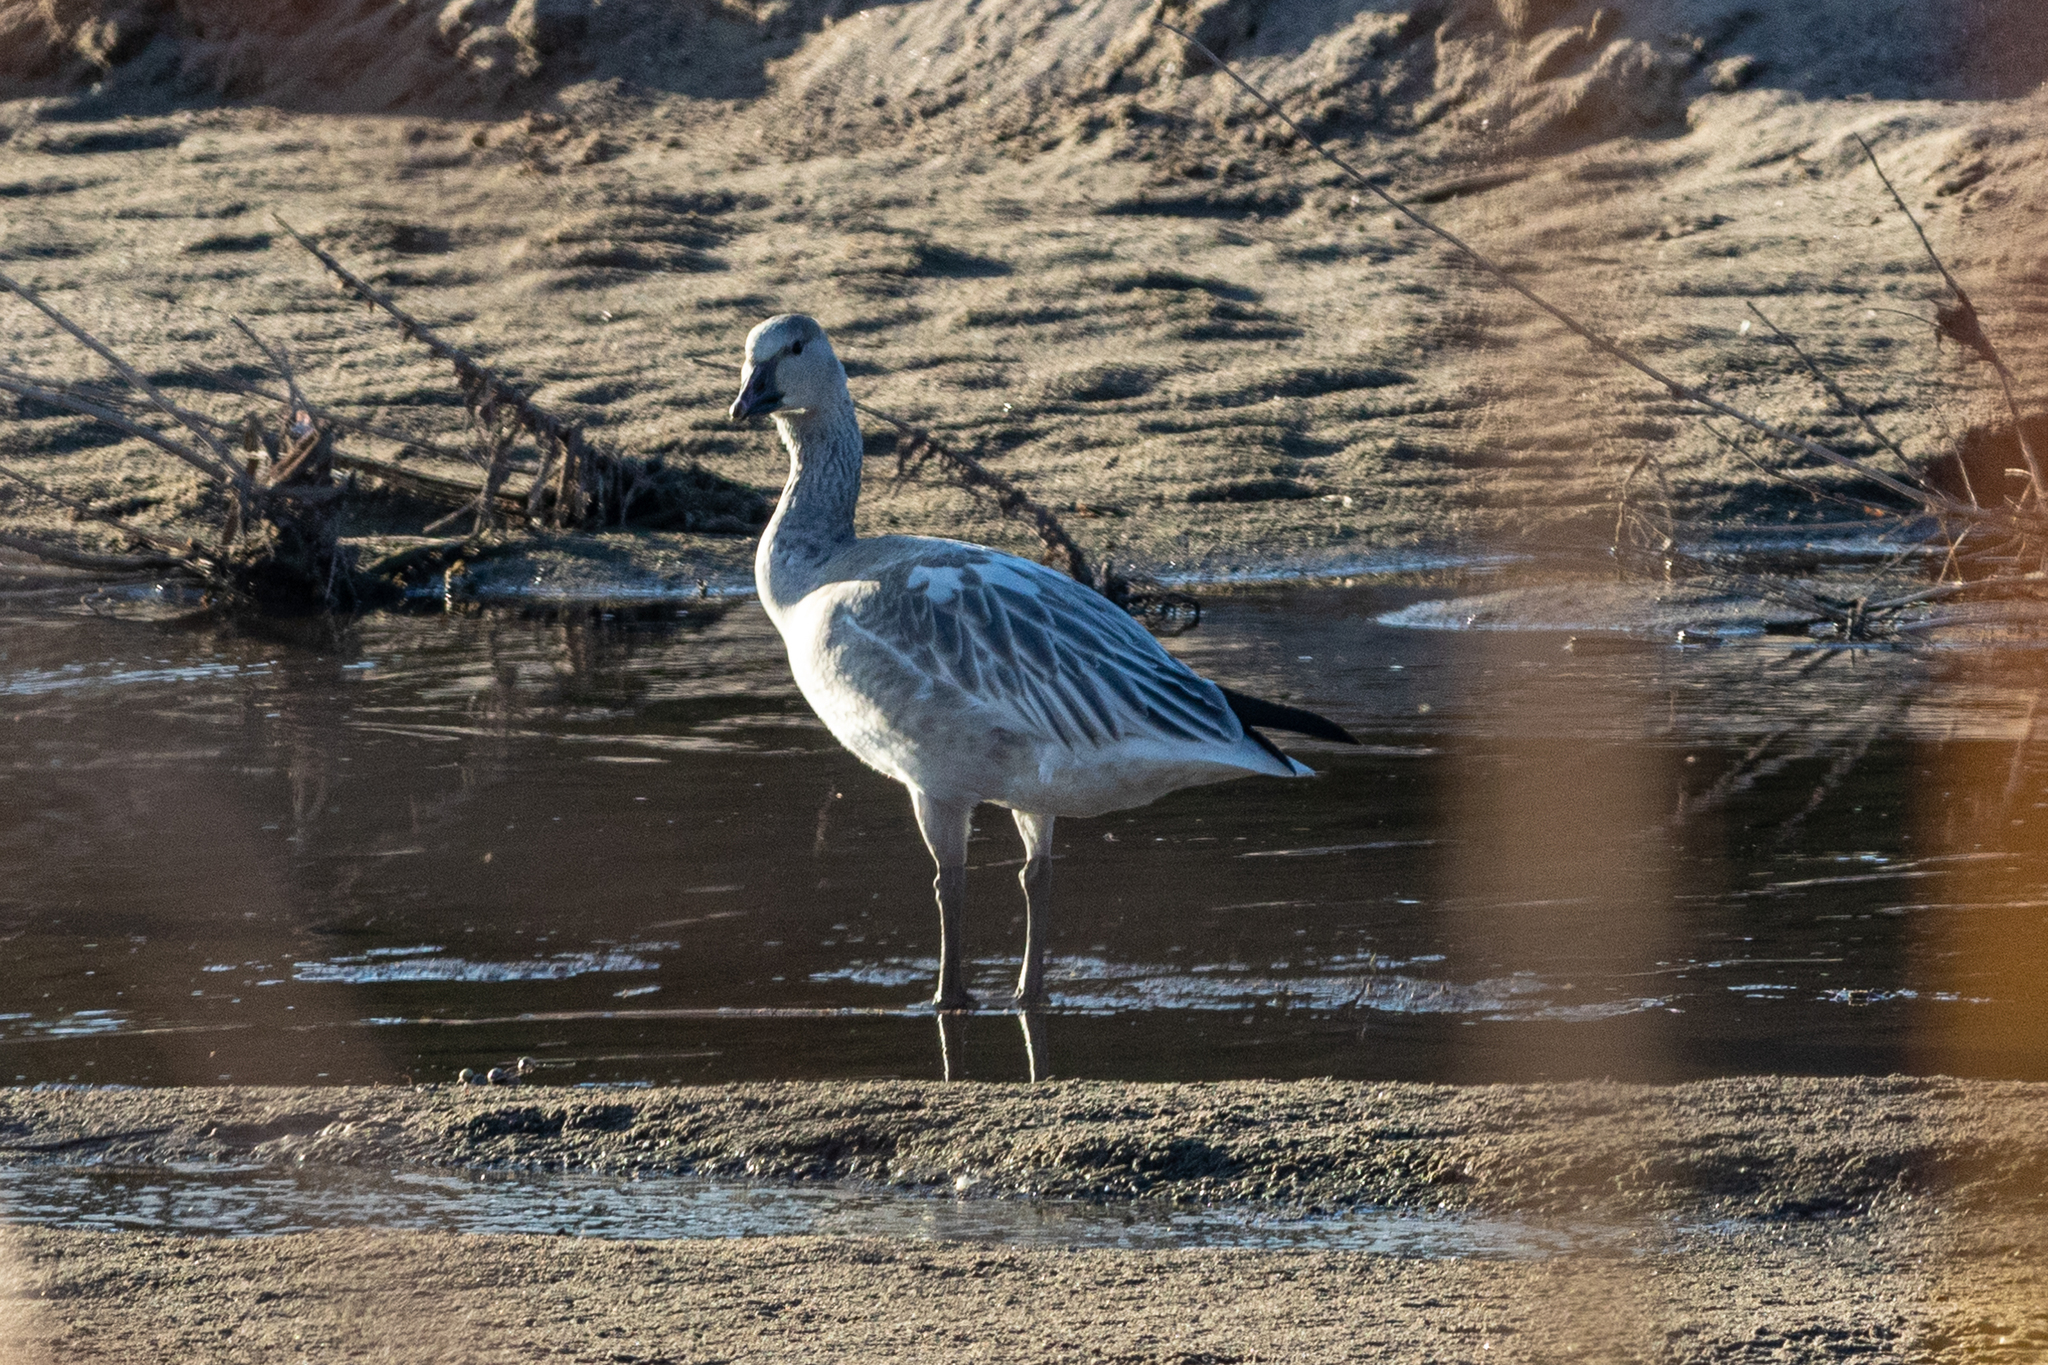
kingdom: Animalia
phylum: Chordata
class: Aves
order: Anseriformes
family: Anatidae
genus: Anser
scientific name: Anser caerulescens
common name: Snow goose
